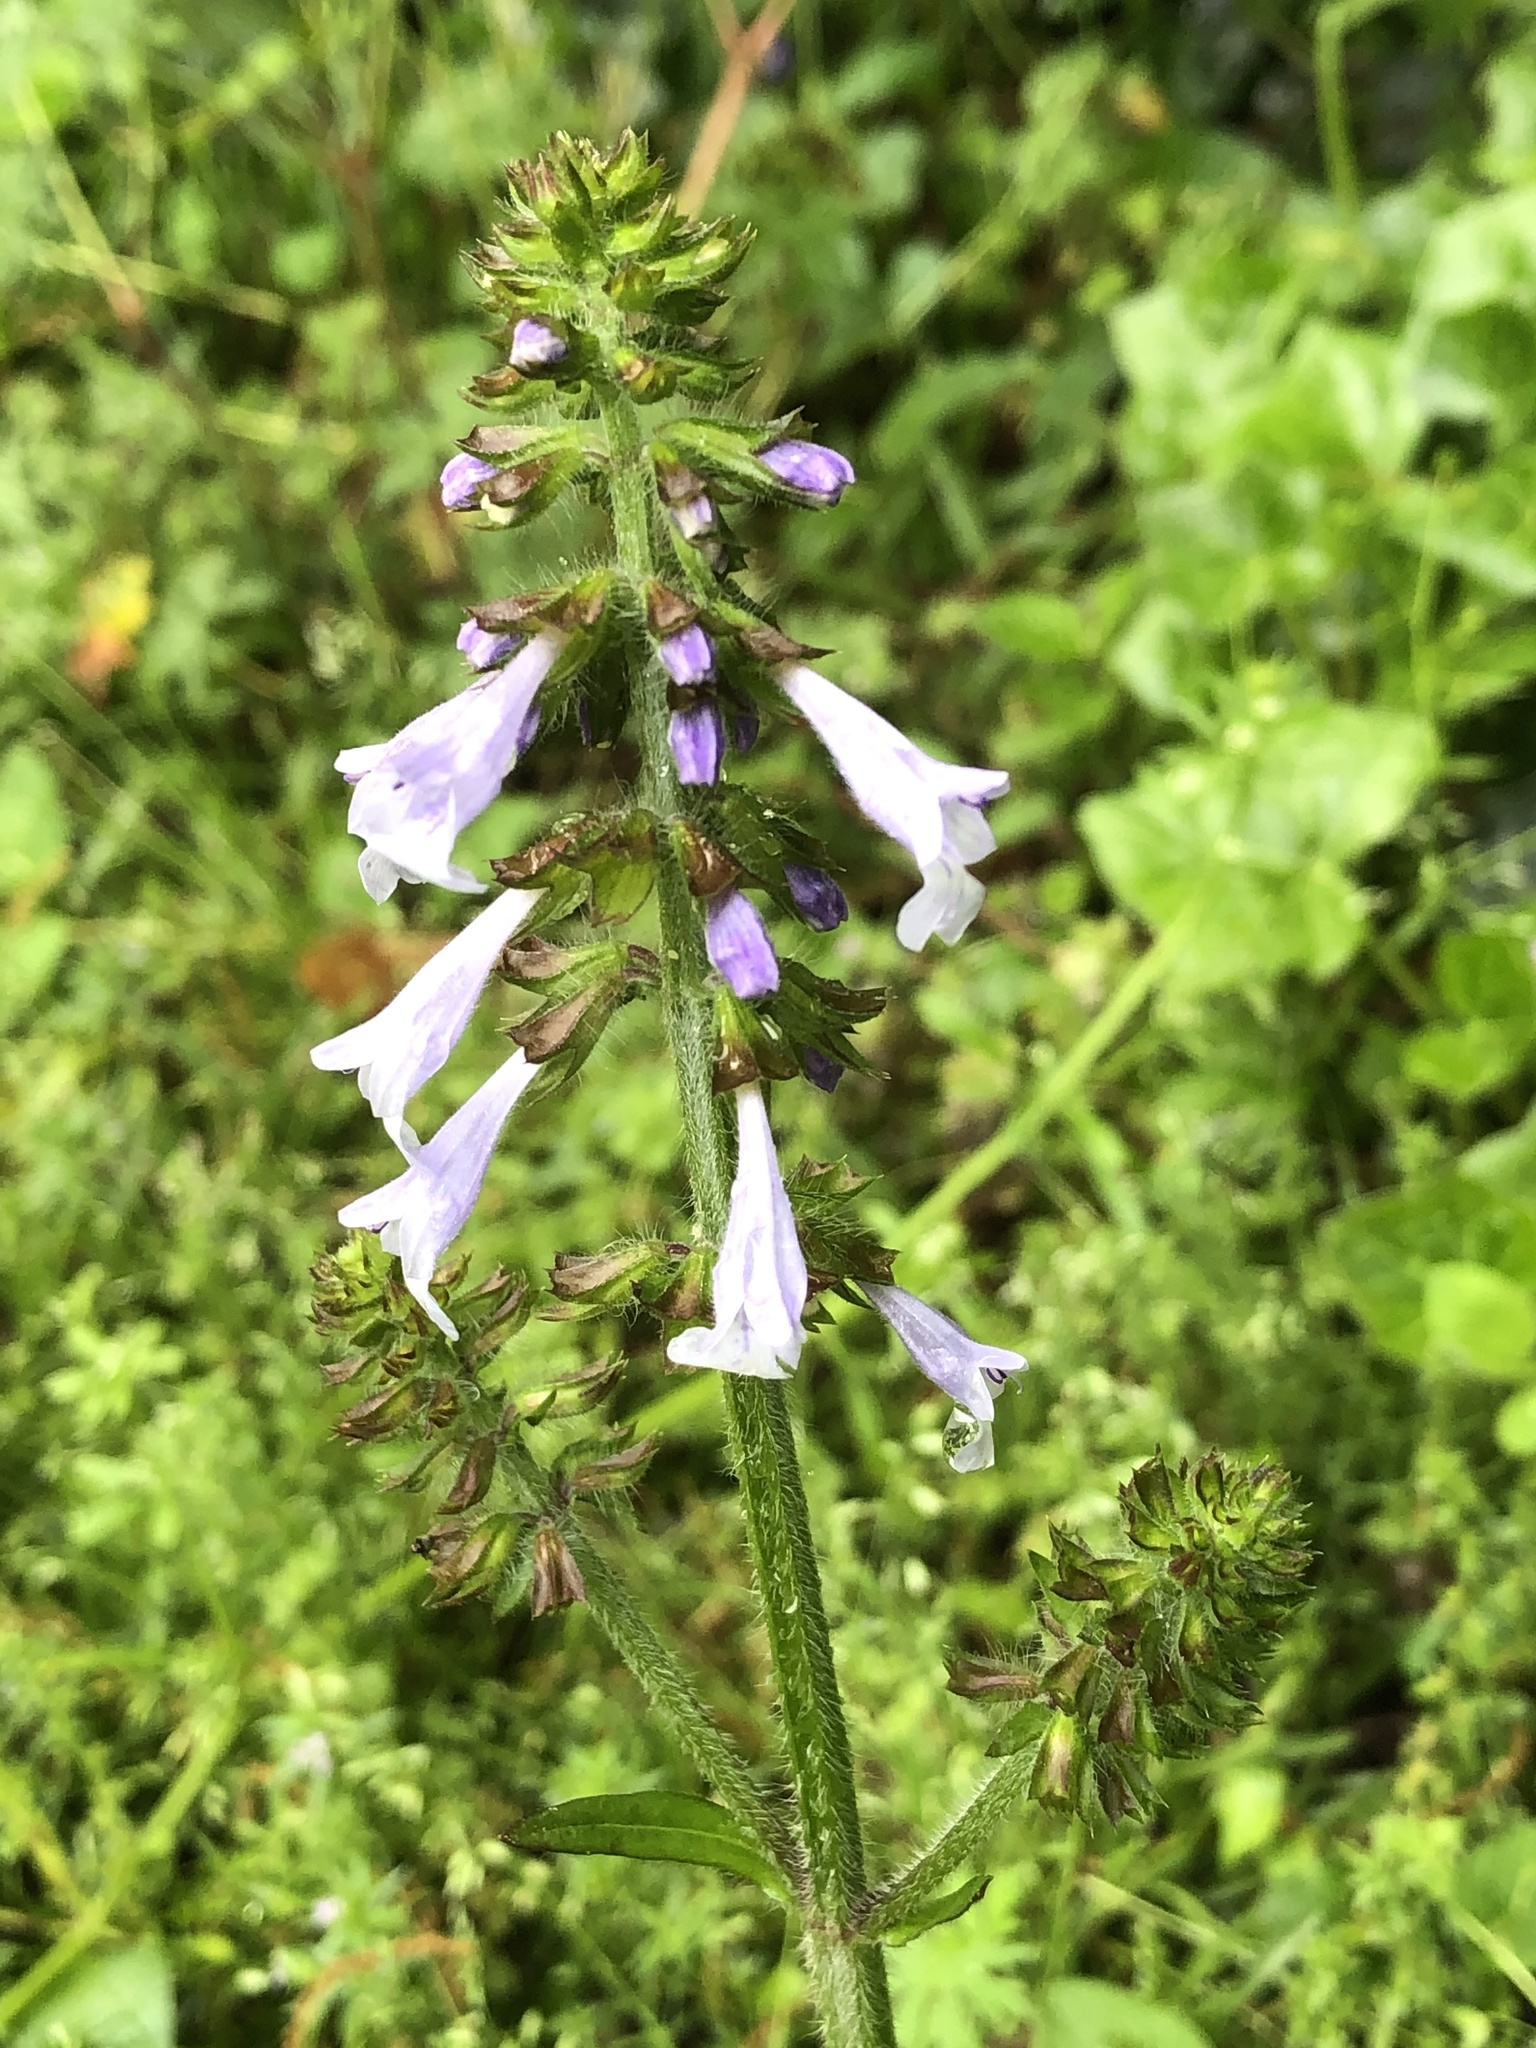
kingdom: Plantae
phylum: Tracheophyta
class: Magnoliopsida
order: Lamiales
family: Lamiaceae
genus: Salvia
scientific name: Salvia lyrata
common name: Cancerweed
